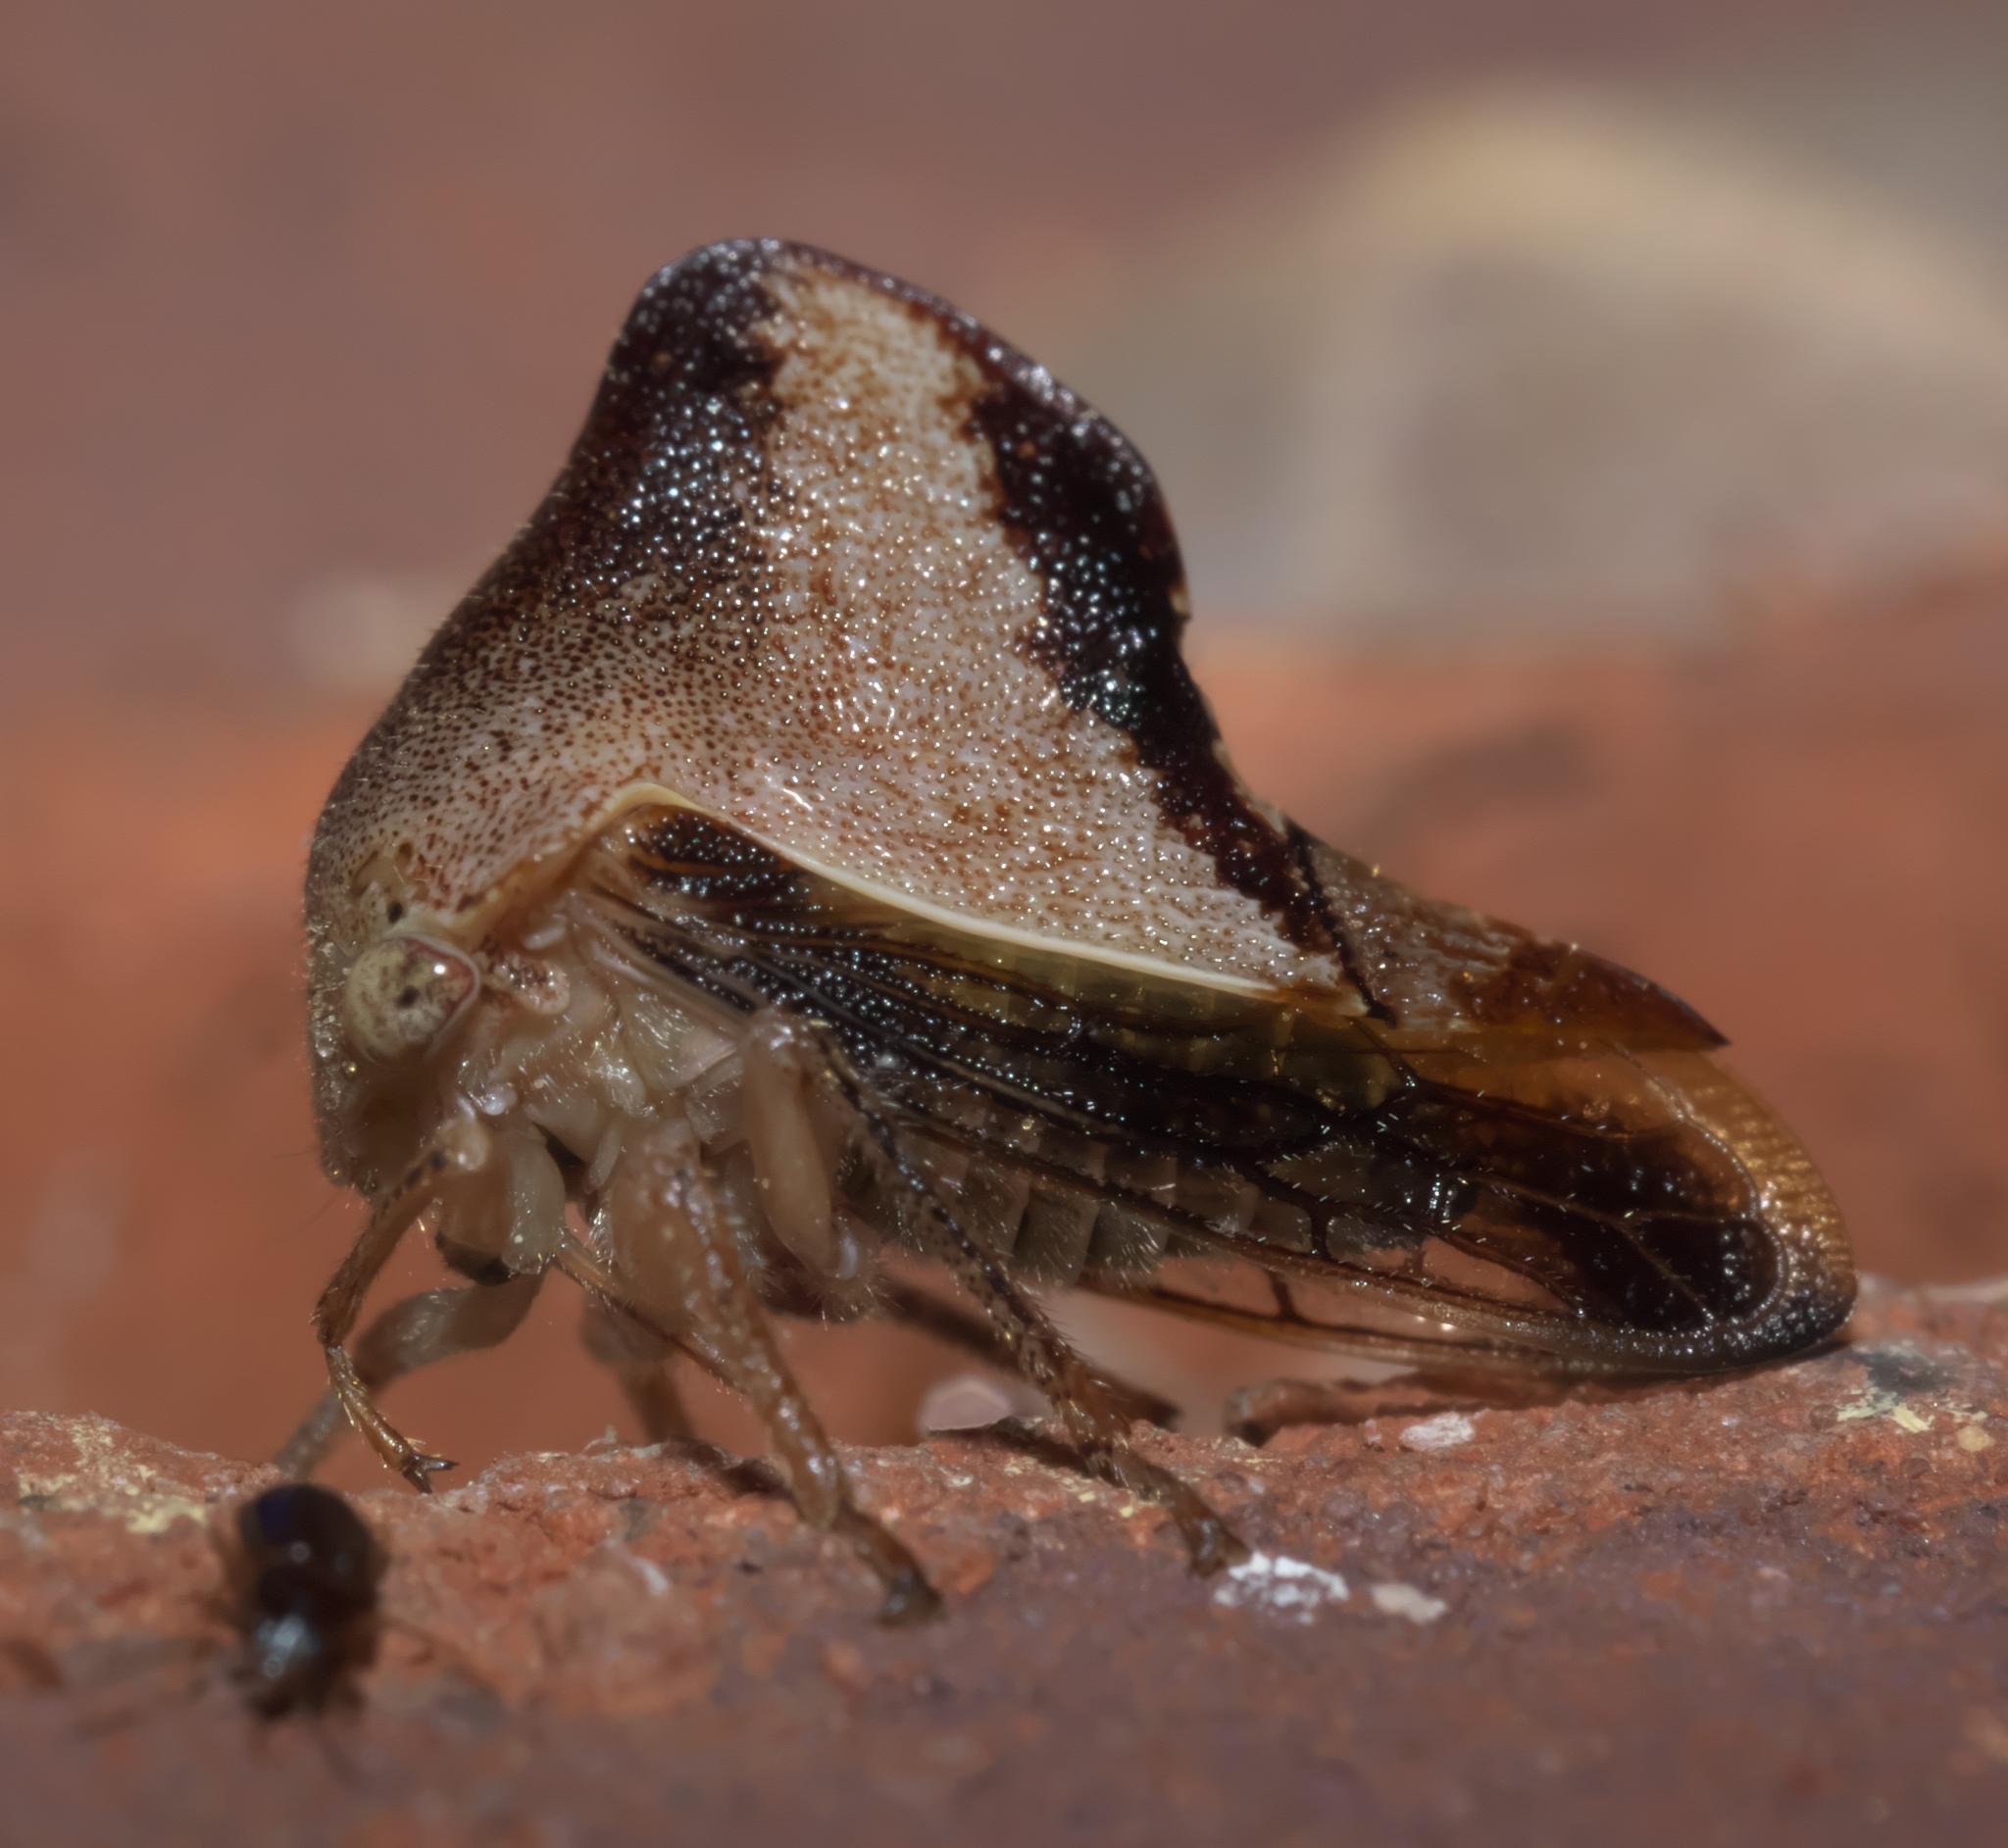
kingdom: Animalia
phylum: Arthropoda
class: Insecta
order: Hemiptera
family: Membracidae
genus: Helonica
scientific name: Helonica excelsa
